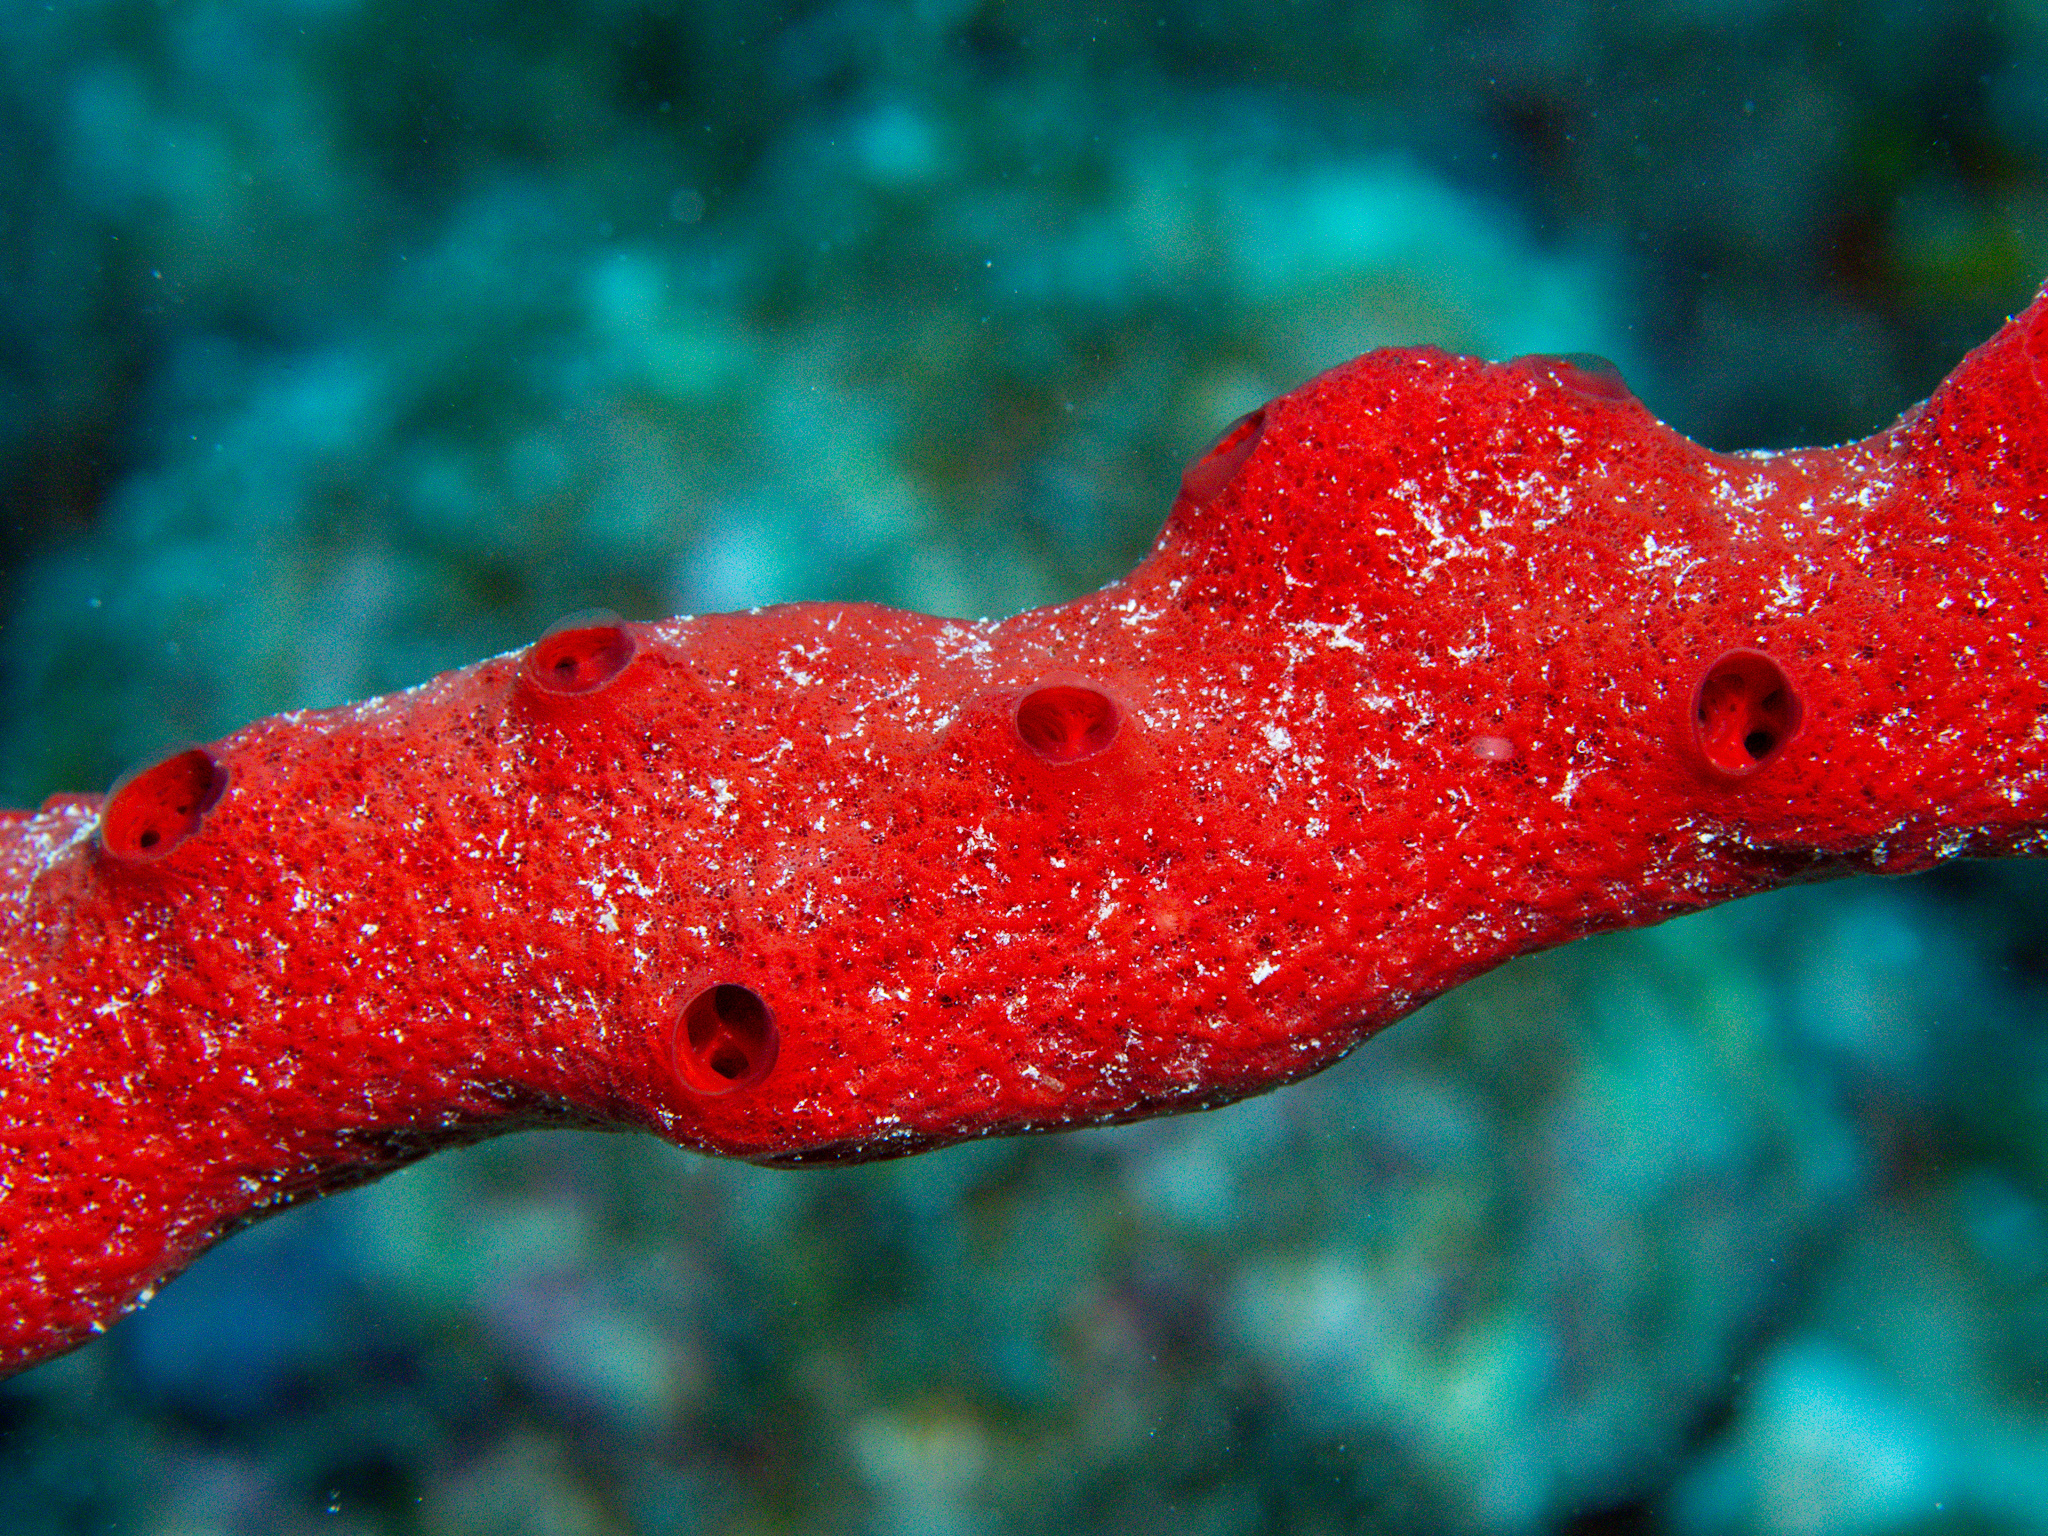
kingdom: Animalia
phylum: Porifera
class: Demospongiae
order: Haplosclerida
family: Niphatidae
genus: Amphimedon
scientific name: Amphimedon compressa
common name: Red sponge
